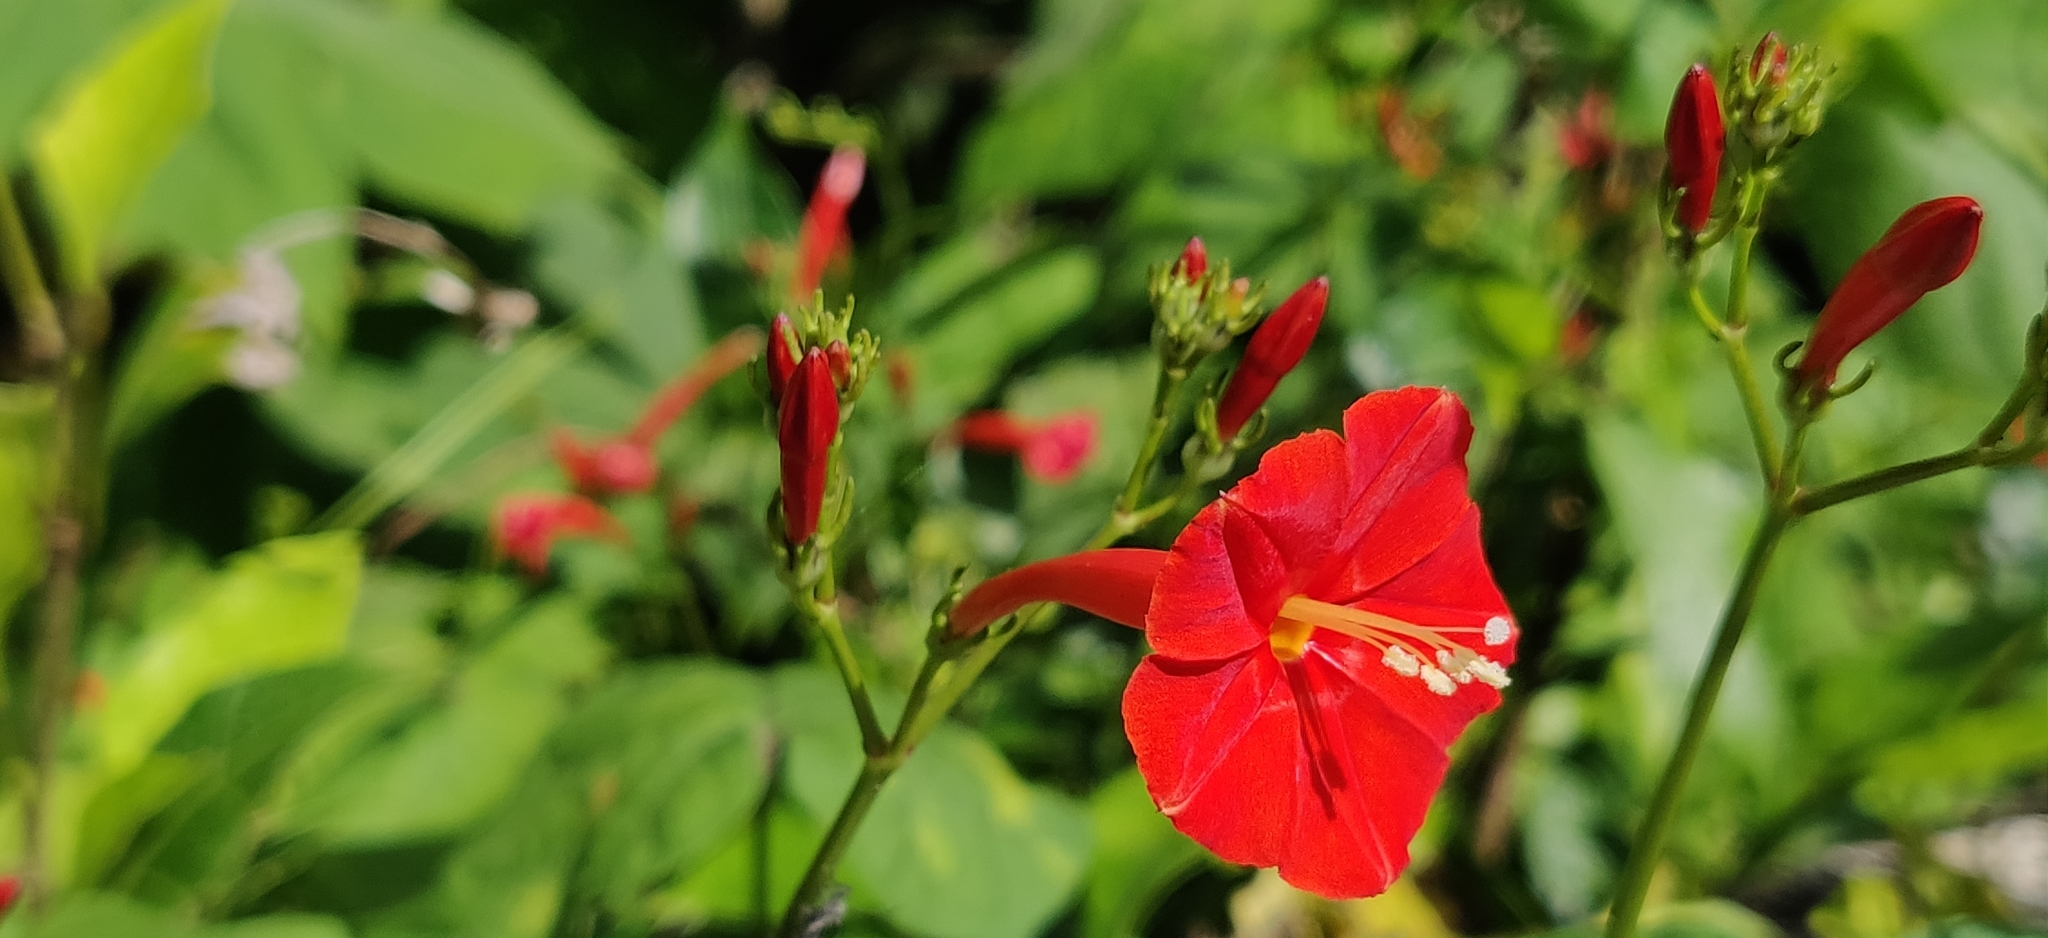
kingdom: Plantae
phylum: Tracheophyta
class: Magnoliopsida
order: Solanales
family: Convolvulaceae
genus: Ipomoea
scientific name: Ipomoea hederifolia
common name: Ivy-leaf morning-glory
